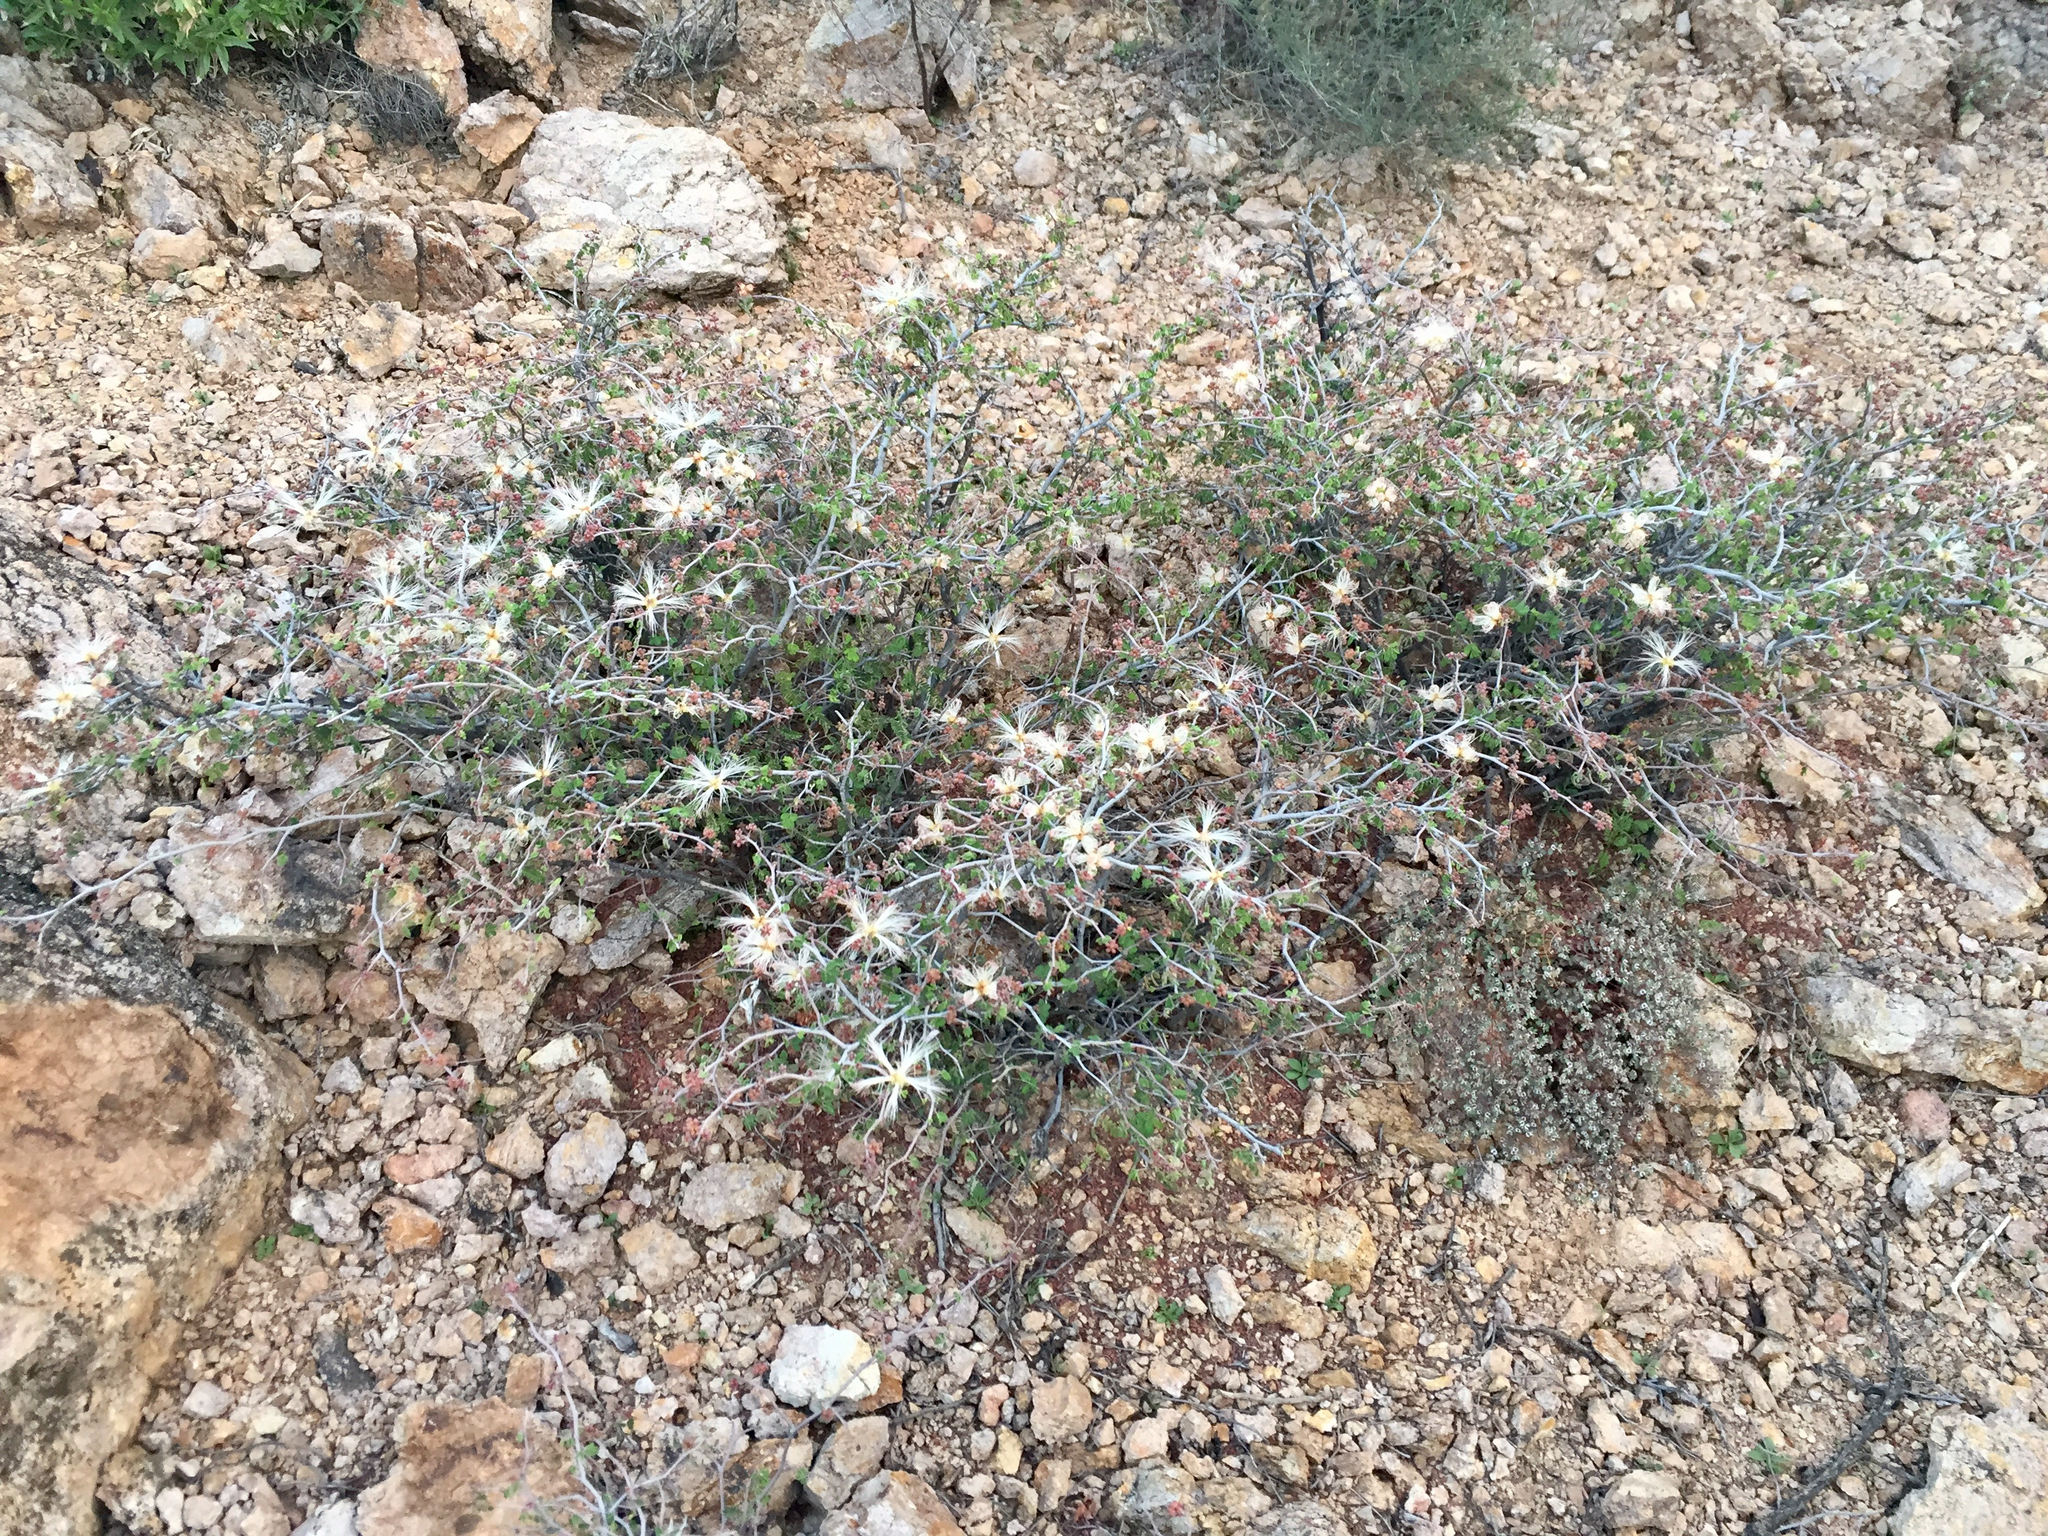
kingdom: Plantae
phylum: Tracheophyta
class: Magnoliopsida
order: Fabales
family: Fabaceae
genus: Calliandra
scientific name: Calliandra eriophylla
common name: Fairy-duster
